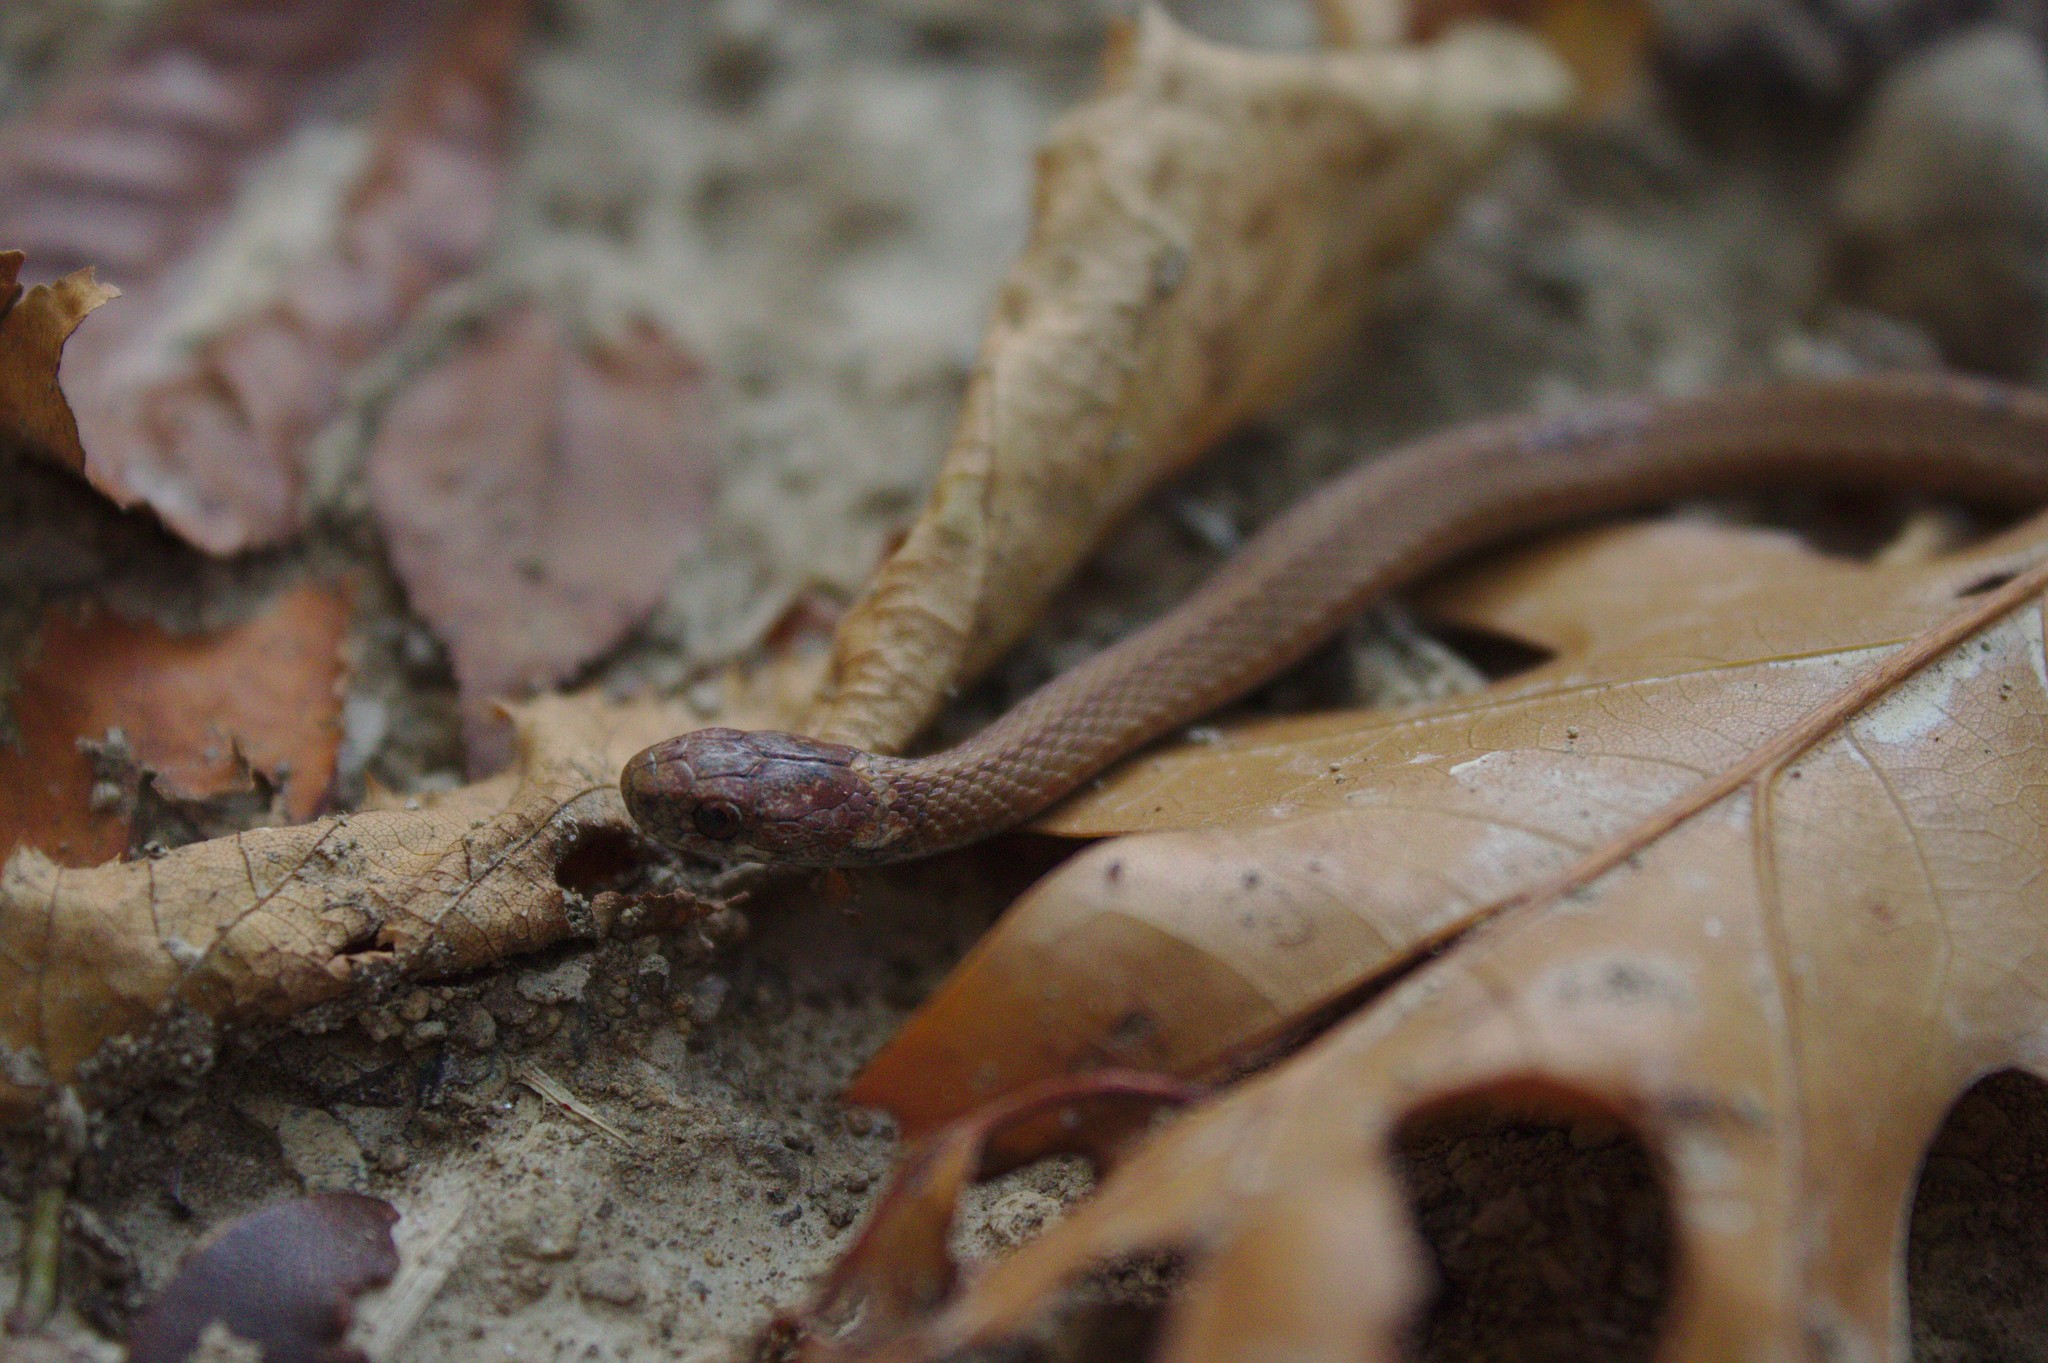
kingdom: Animalia
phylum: Chordata
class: Squamata
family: Colubridae
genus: Storeria
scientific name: Storeria occipitomaculata
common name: Redbelly snake
